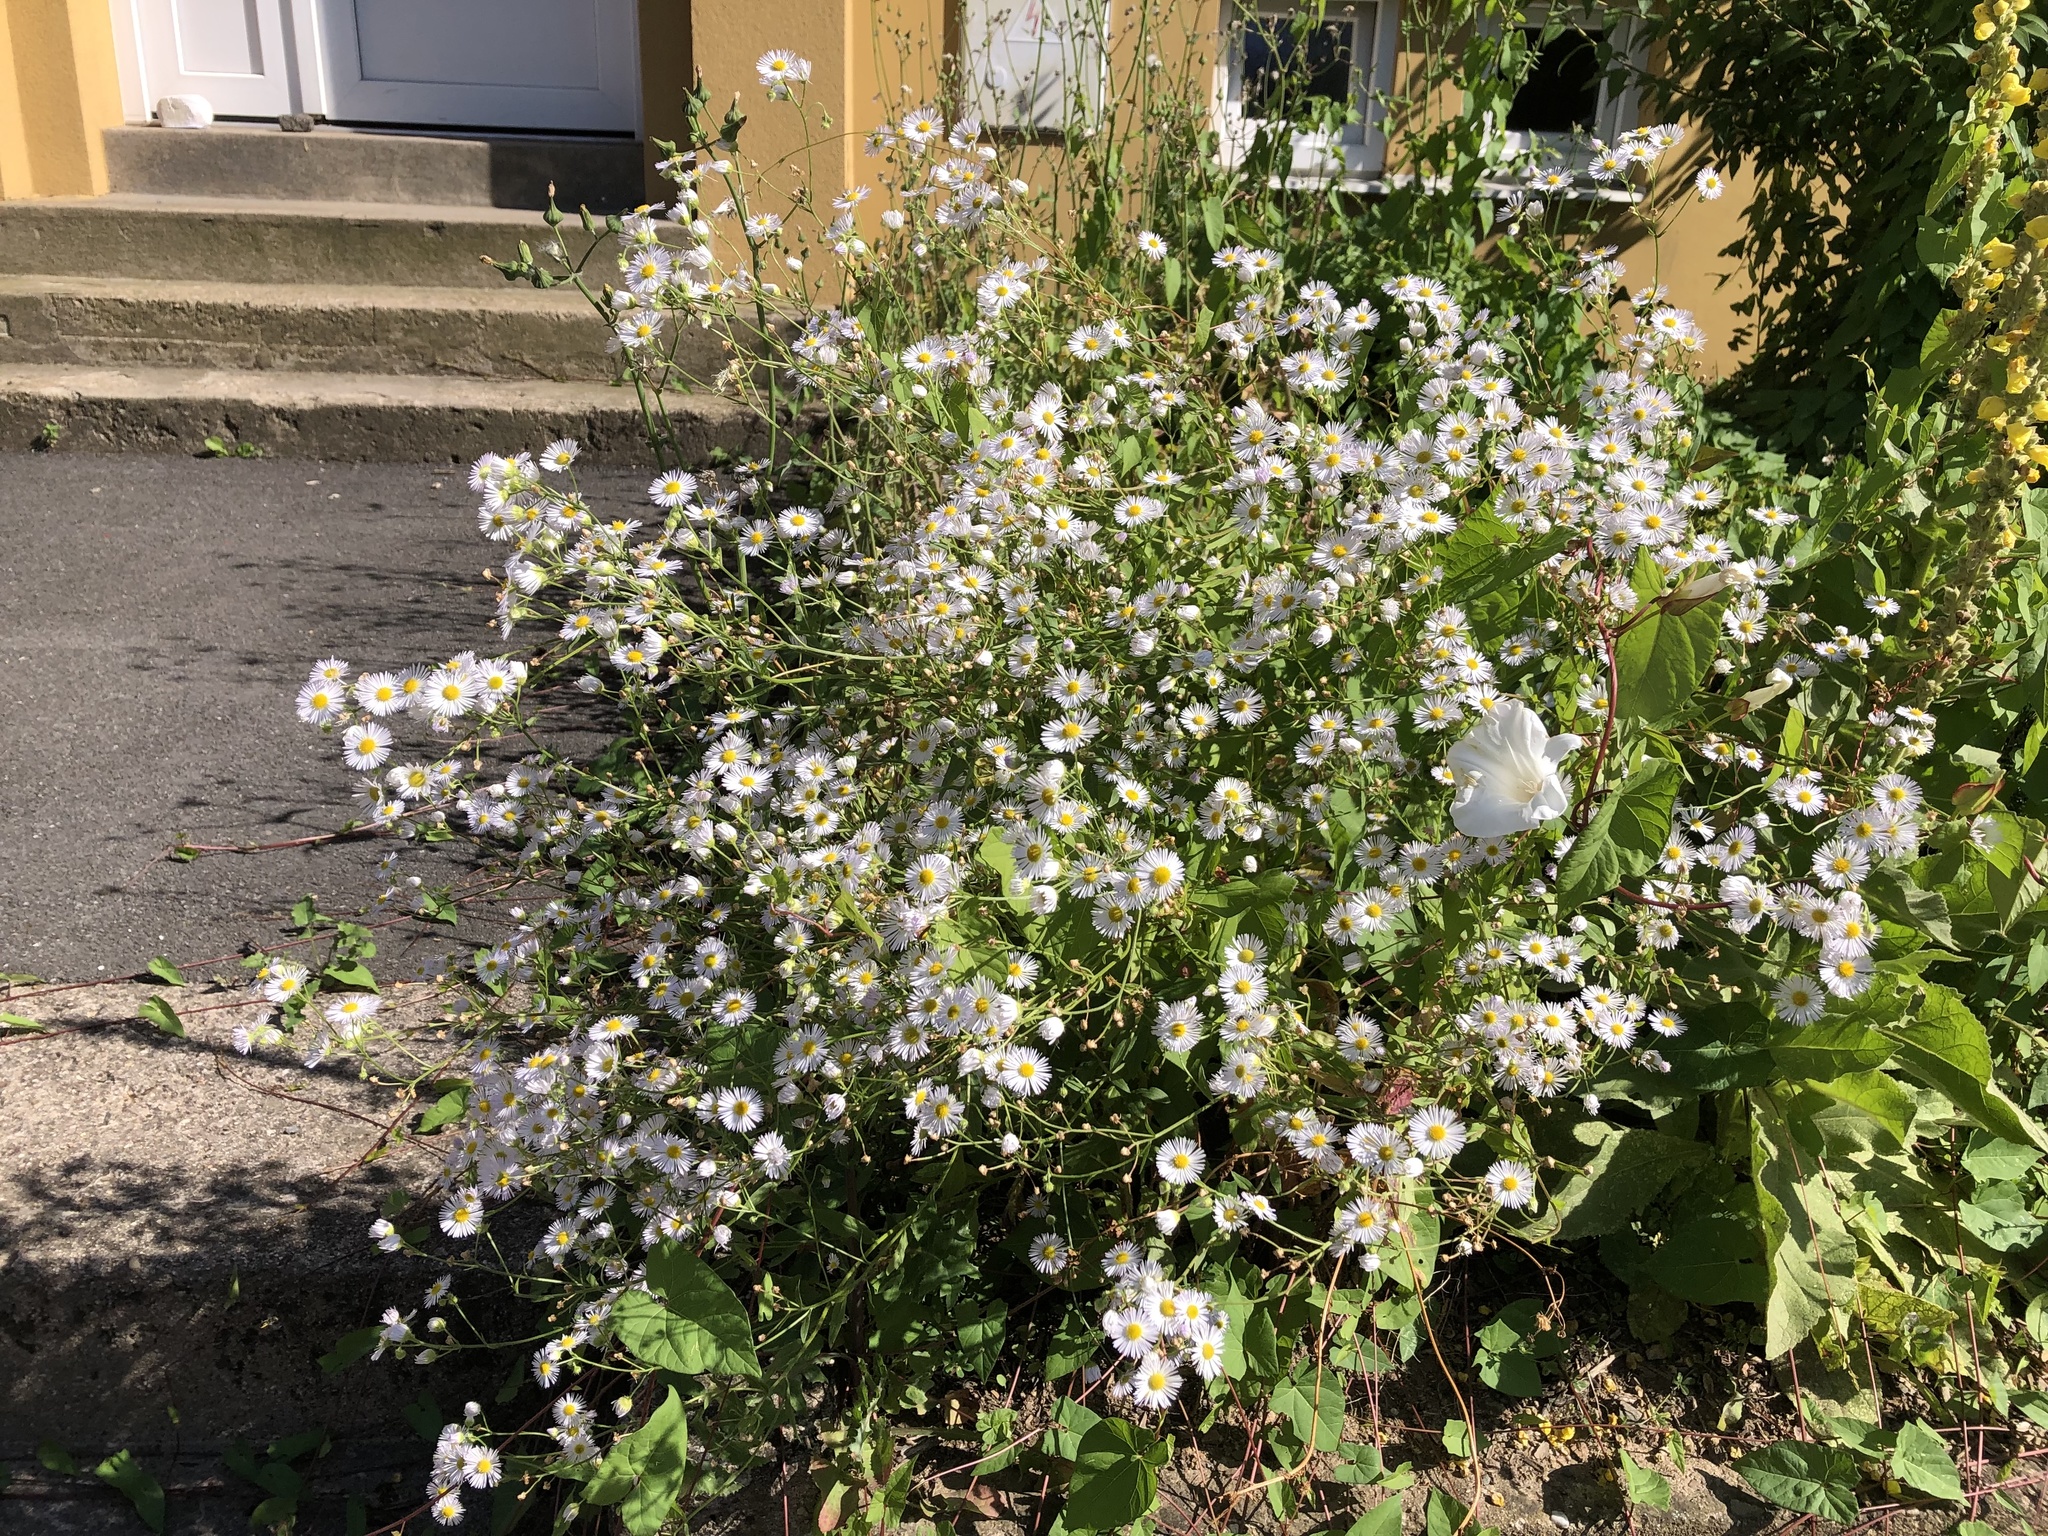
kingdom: Plantae
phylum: Tracheophyta
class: Magnoliopsida
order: Asterales
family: Asteraceae
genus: Erigeron
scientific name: Erigeron annuus
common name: Tall fleabane
